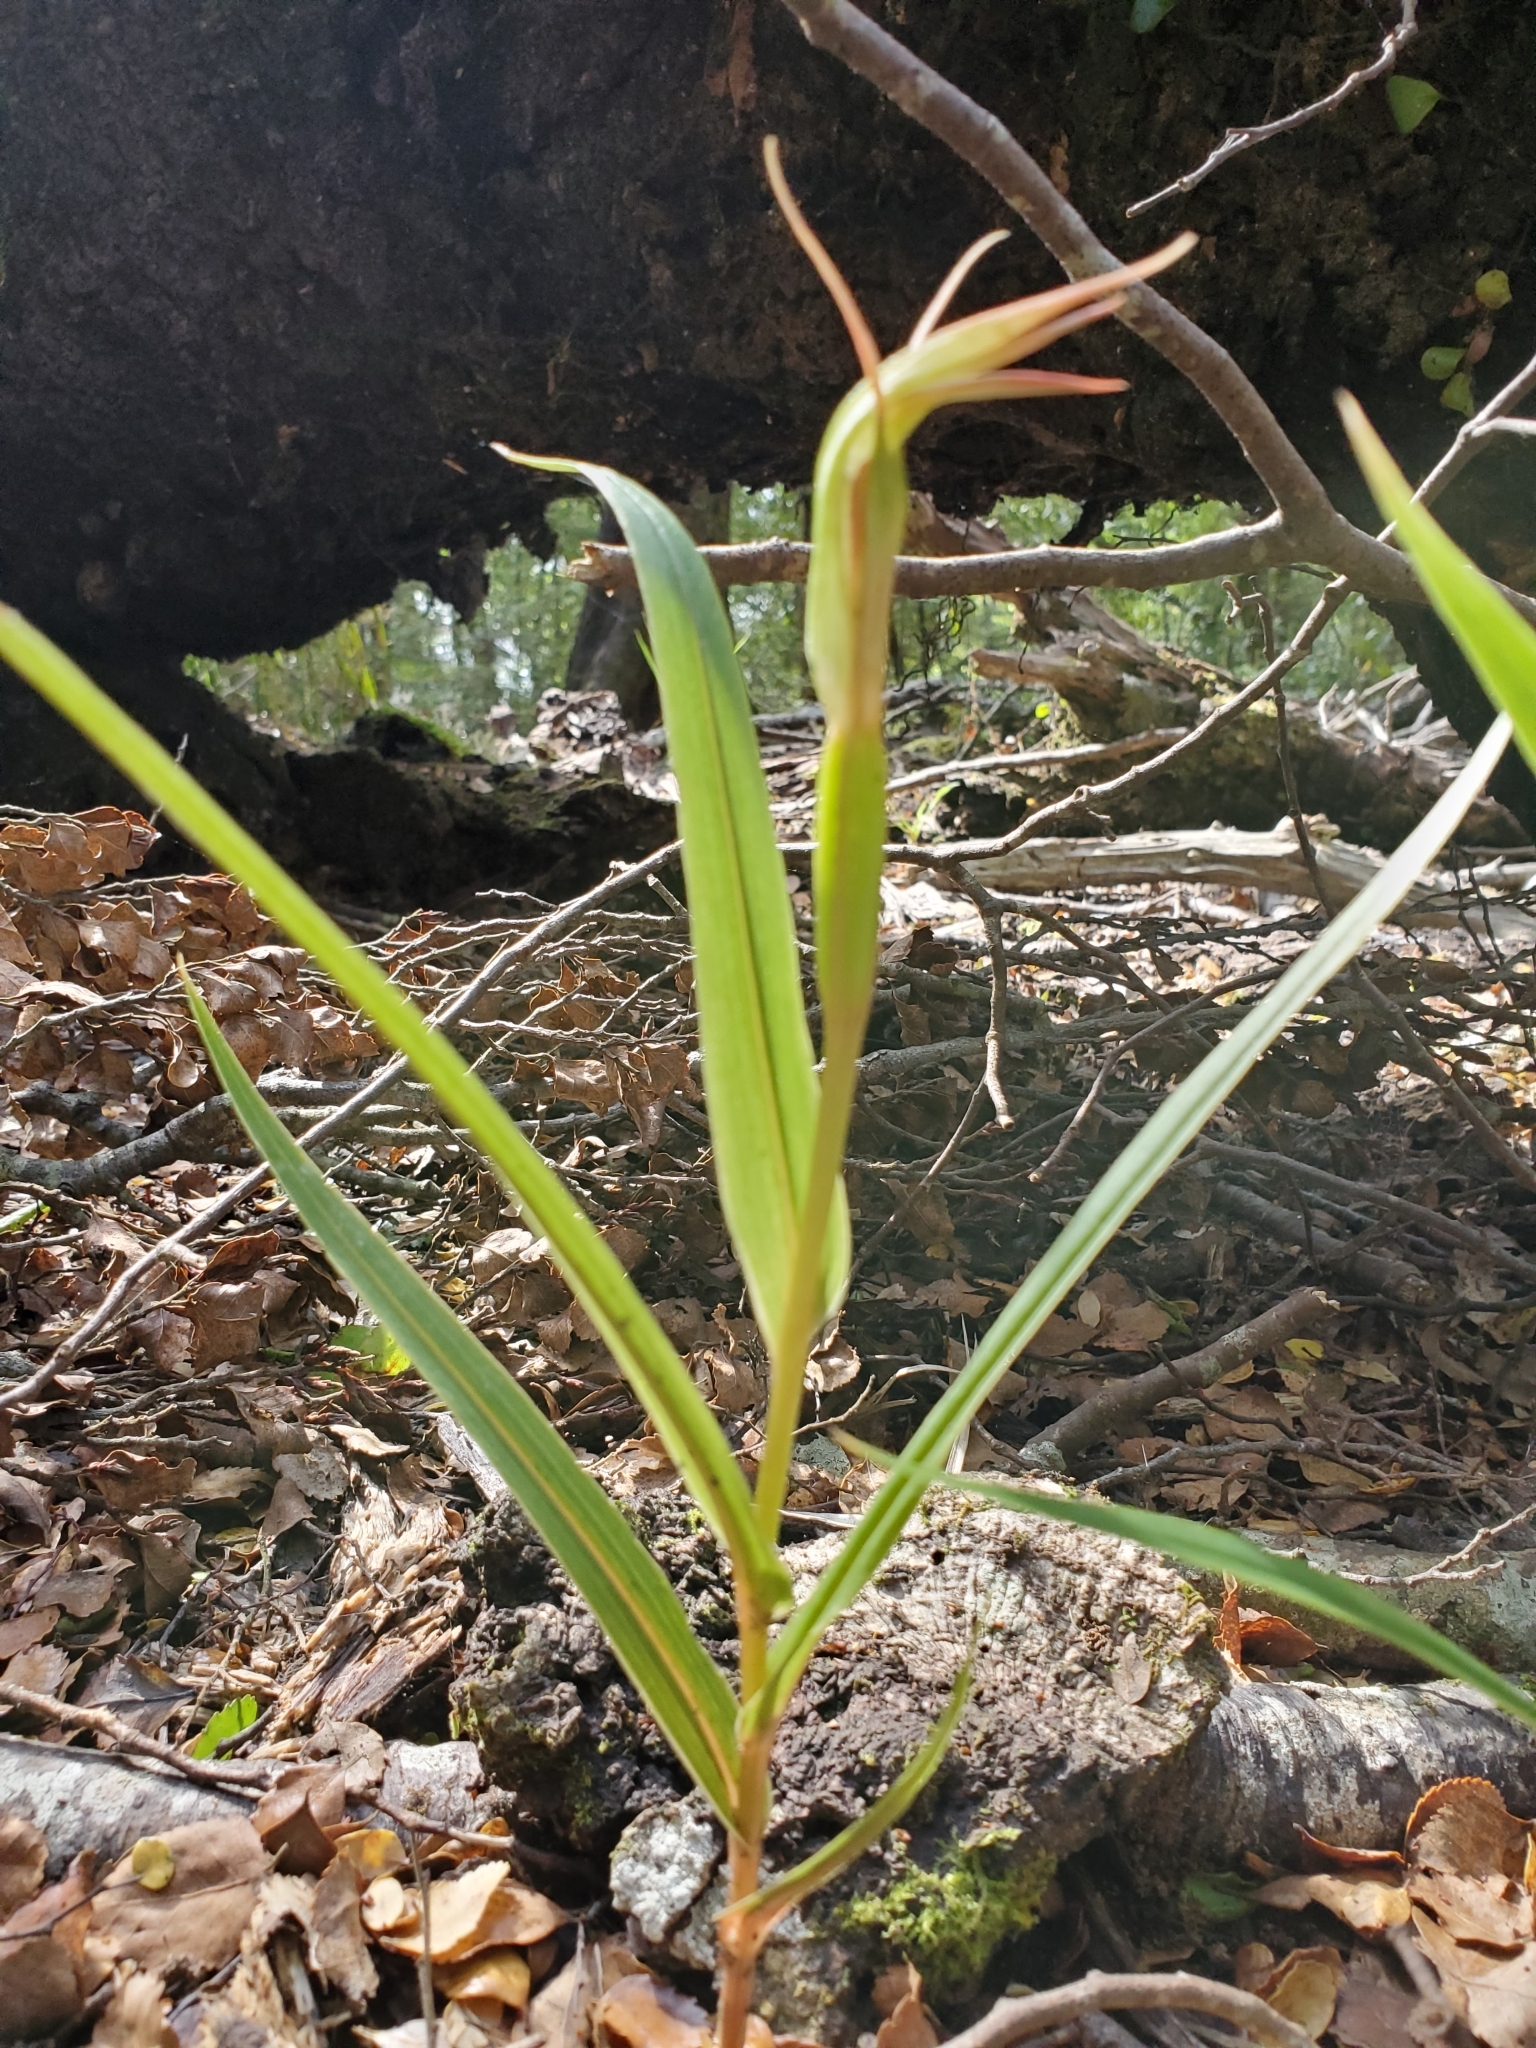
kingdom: Plantae
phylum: Tracheophyta
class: Liliopsida
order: Asparagales
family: Orchidaceae
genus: Pterostylis
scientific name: Pterostylis cardiostigma
